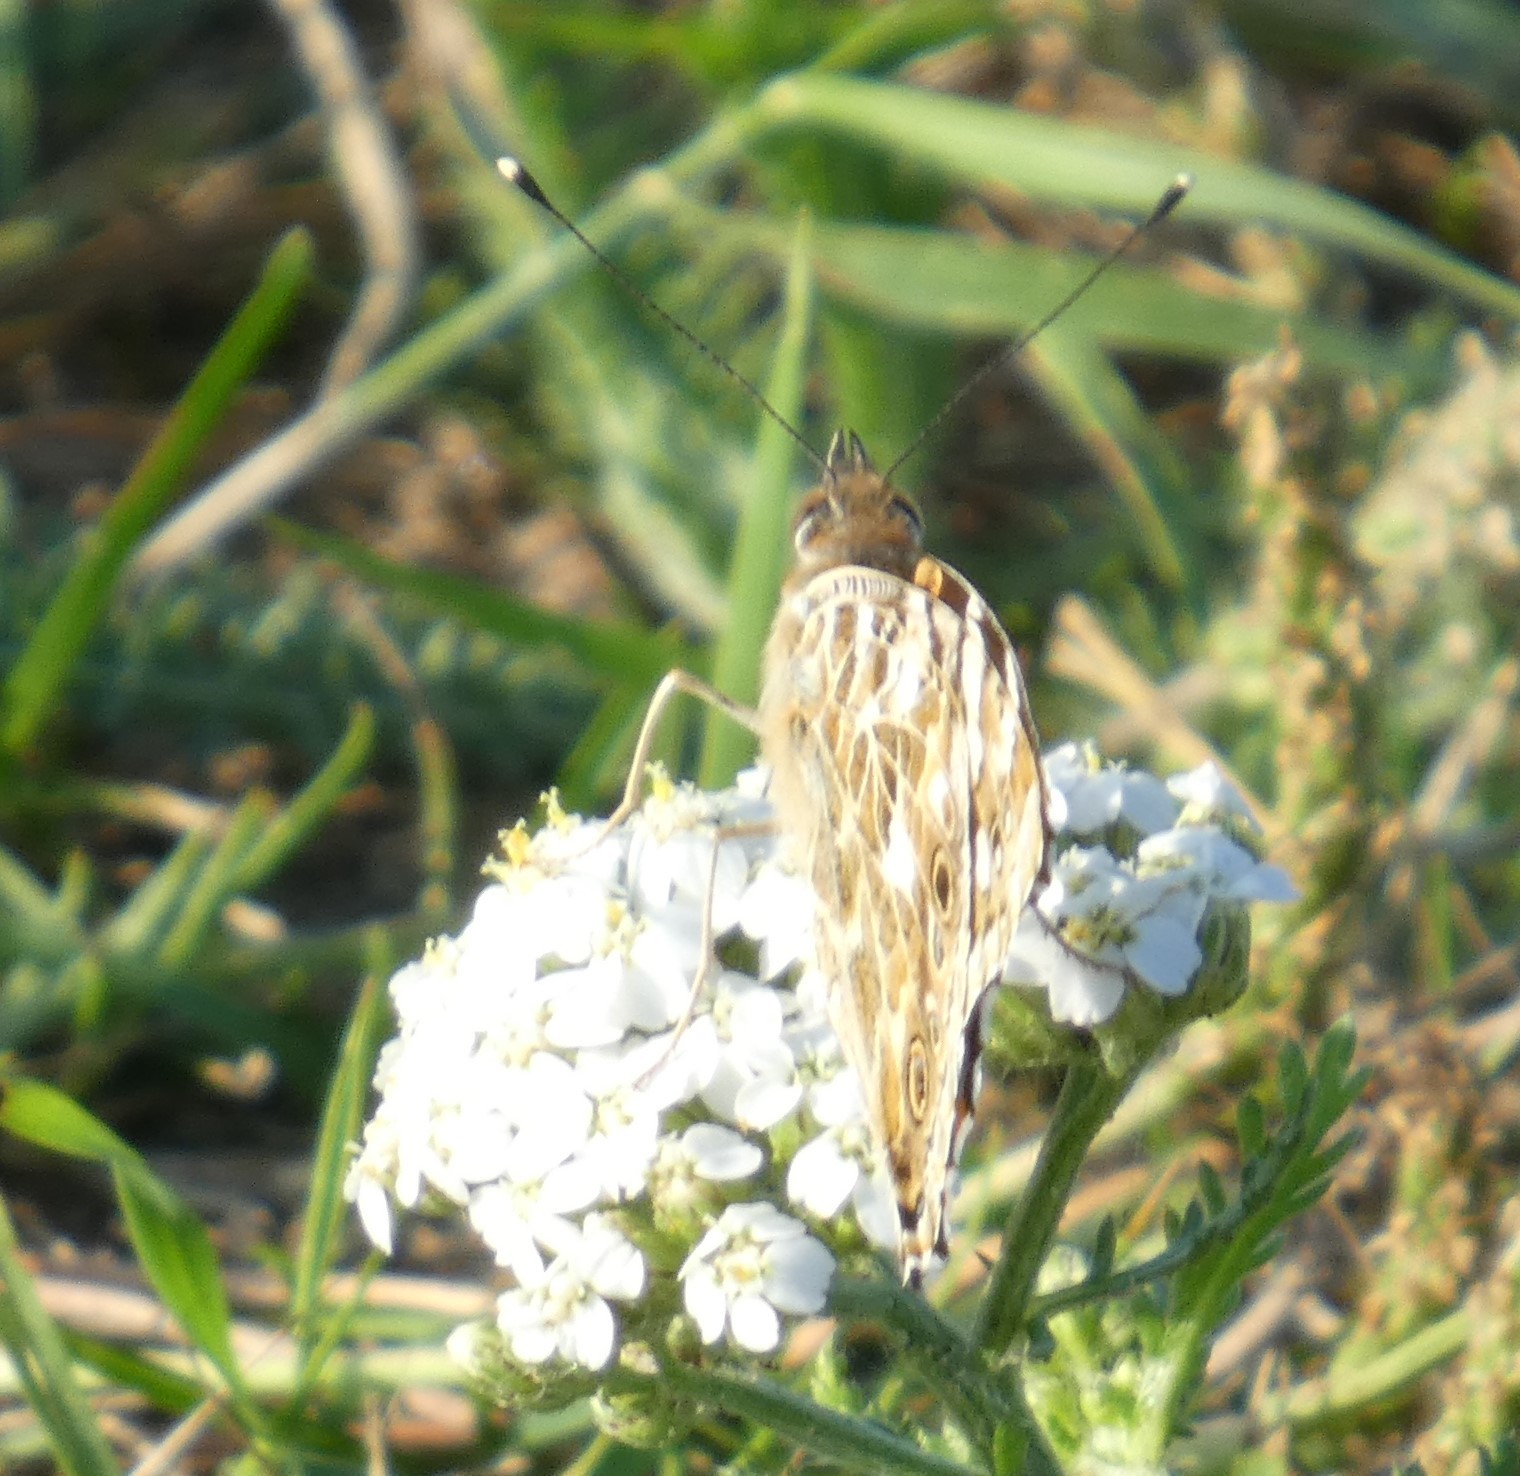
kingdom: Animalia
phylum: Arthropoda
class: Insecta
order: Lepidoptera
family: Nymphalidae
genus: Vanessa
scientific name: Vanessa cardui
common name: Painted lady
